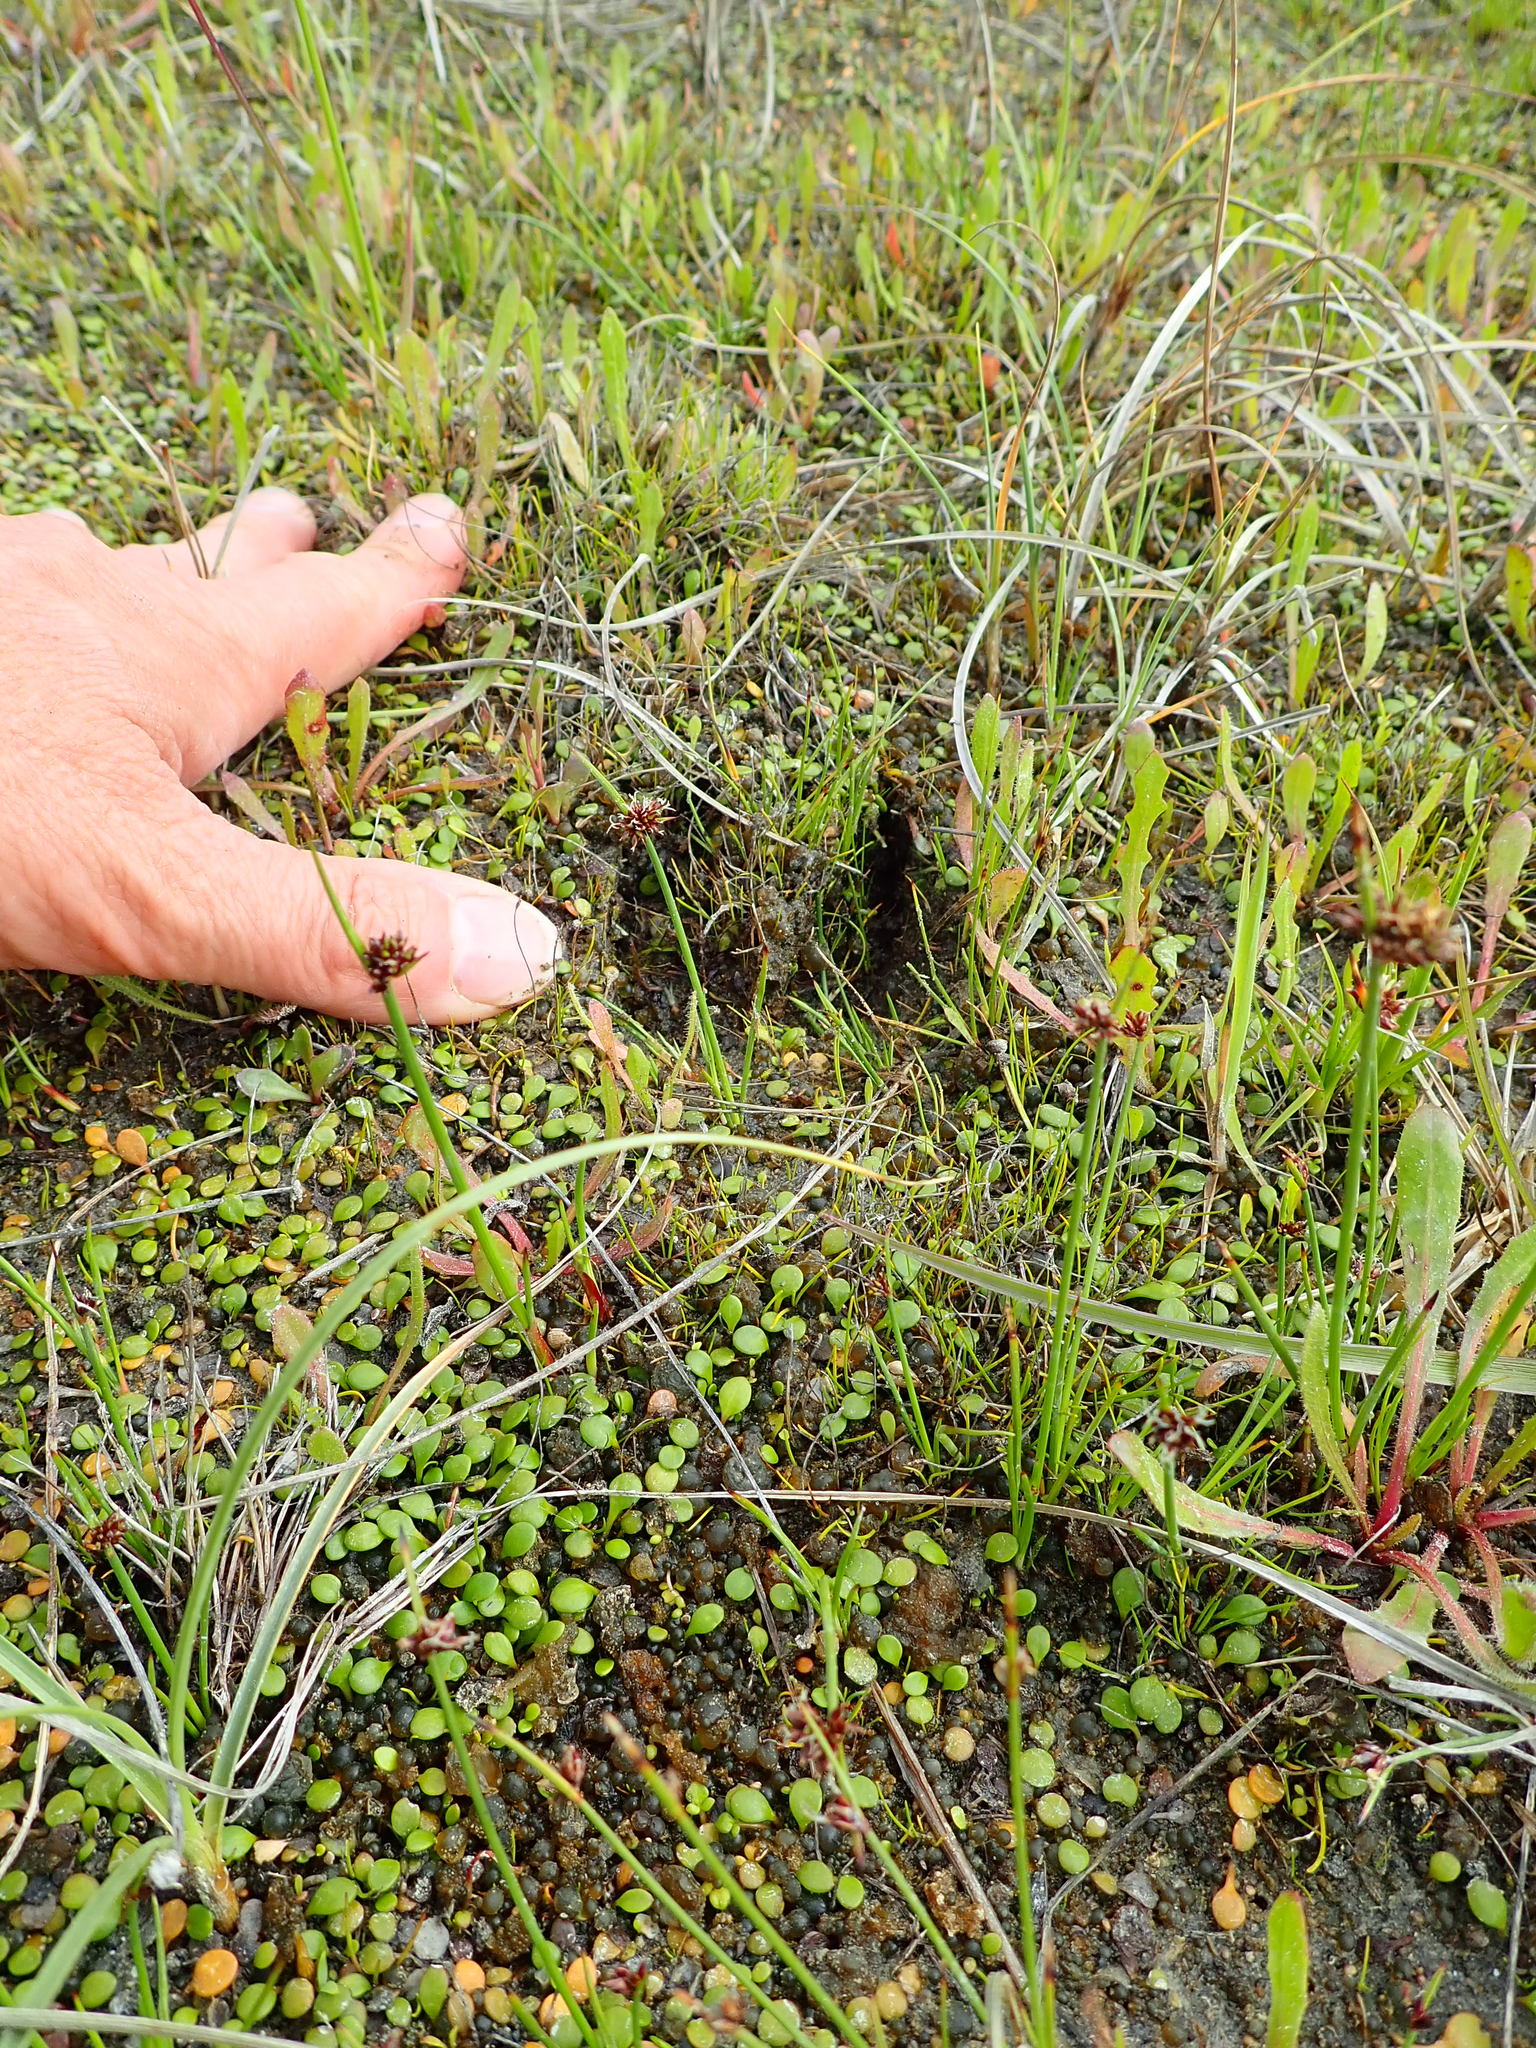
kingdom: Animalia
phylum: Chordata
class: Mammalia
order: Artiodactyla
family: Cervidae
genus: Rusa
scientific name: Rusa unicolor
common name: Sambar
